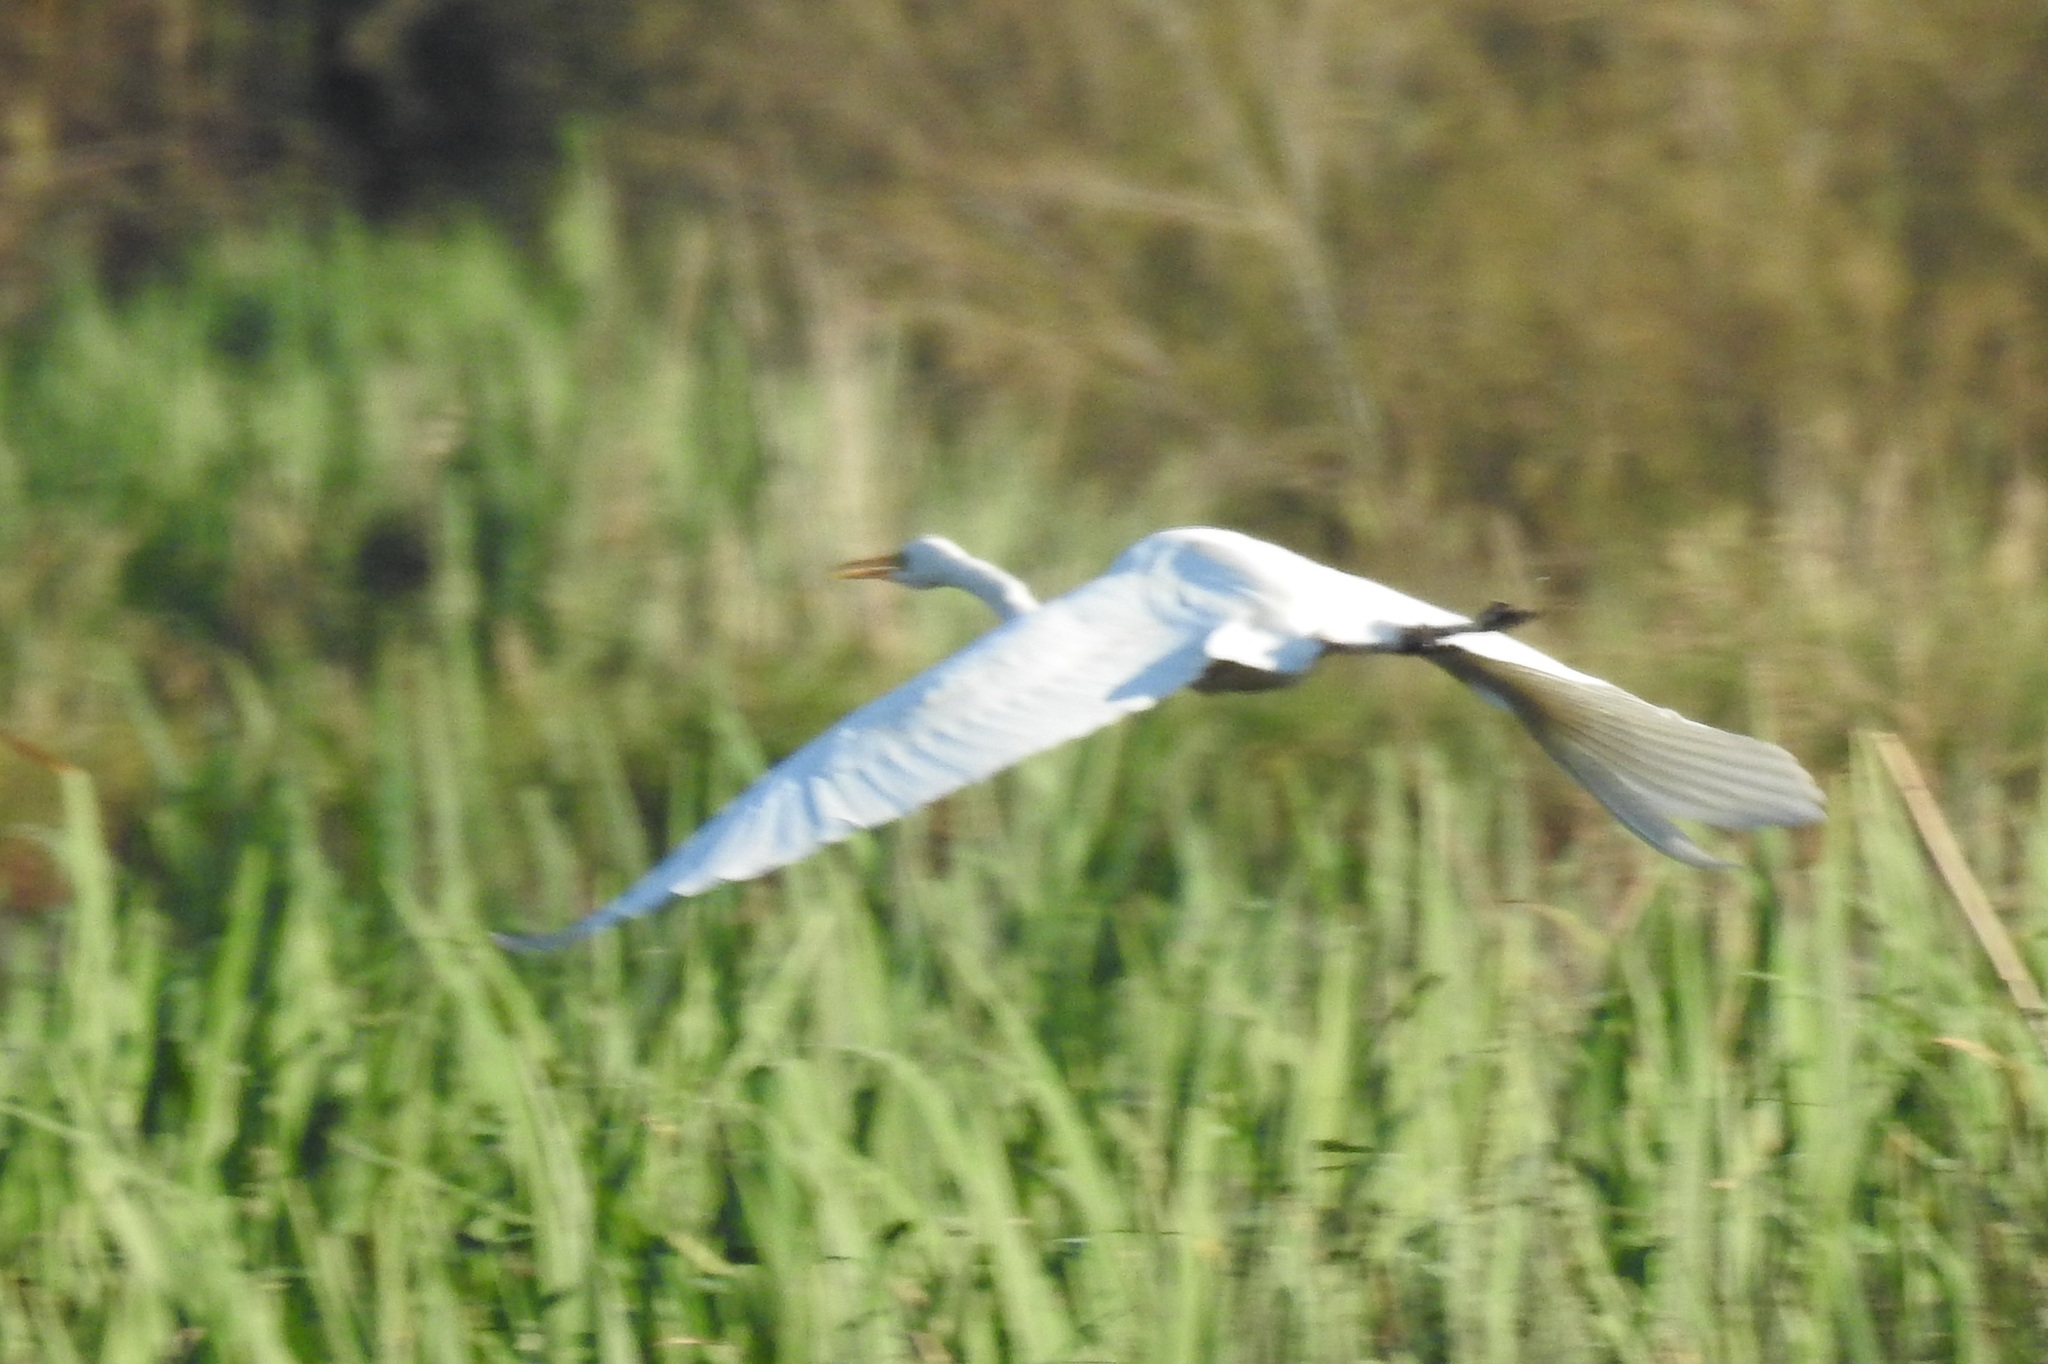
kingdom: Animalia
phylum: Chordata
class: Aves
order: Pelecaniformes
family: Ardeidae
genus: Ardea
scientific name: Ardea alba
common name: Great egret
